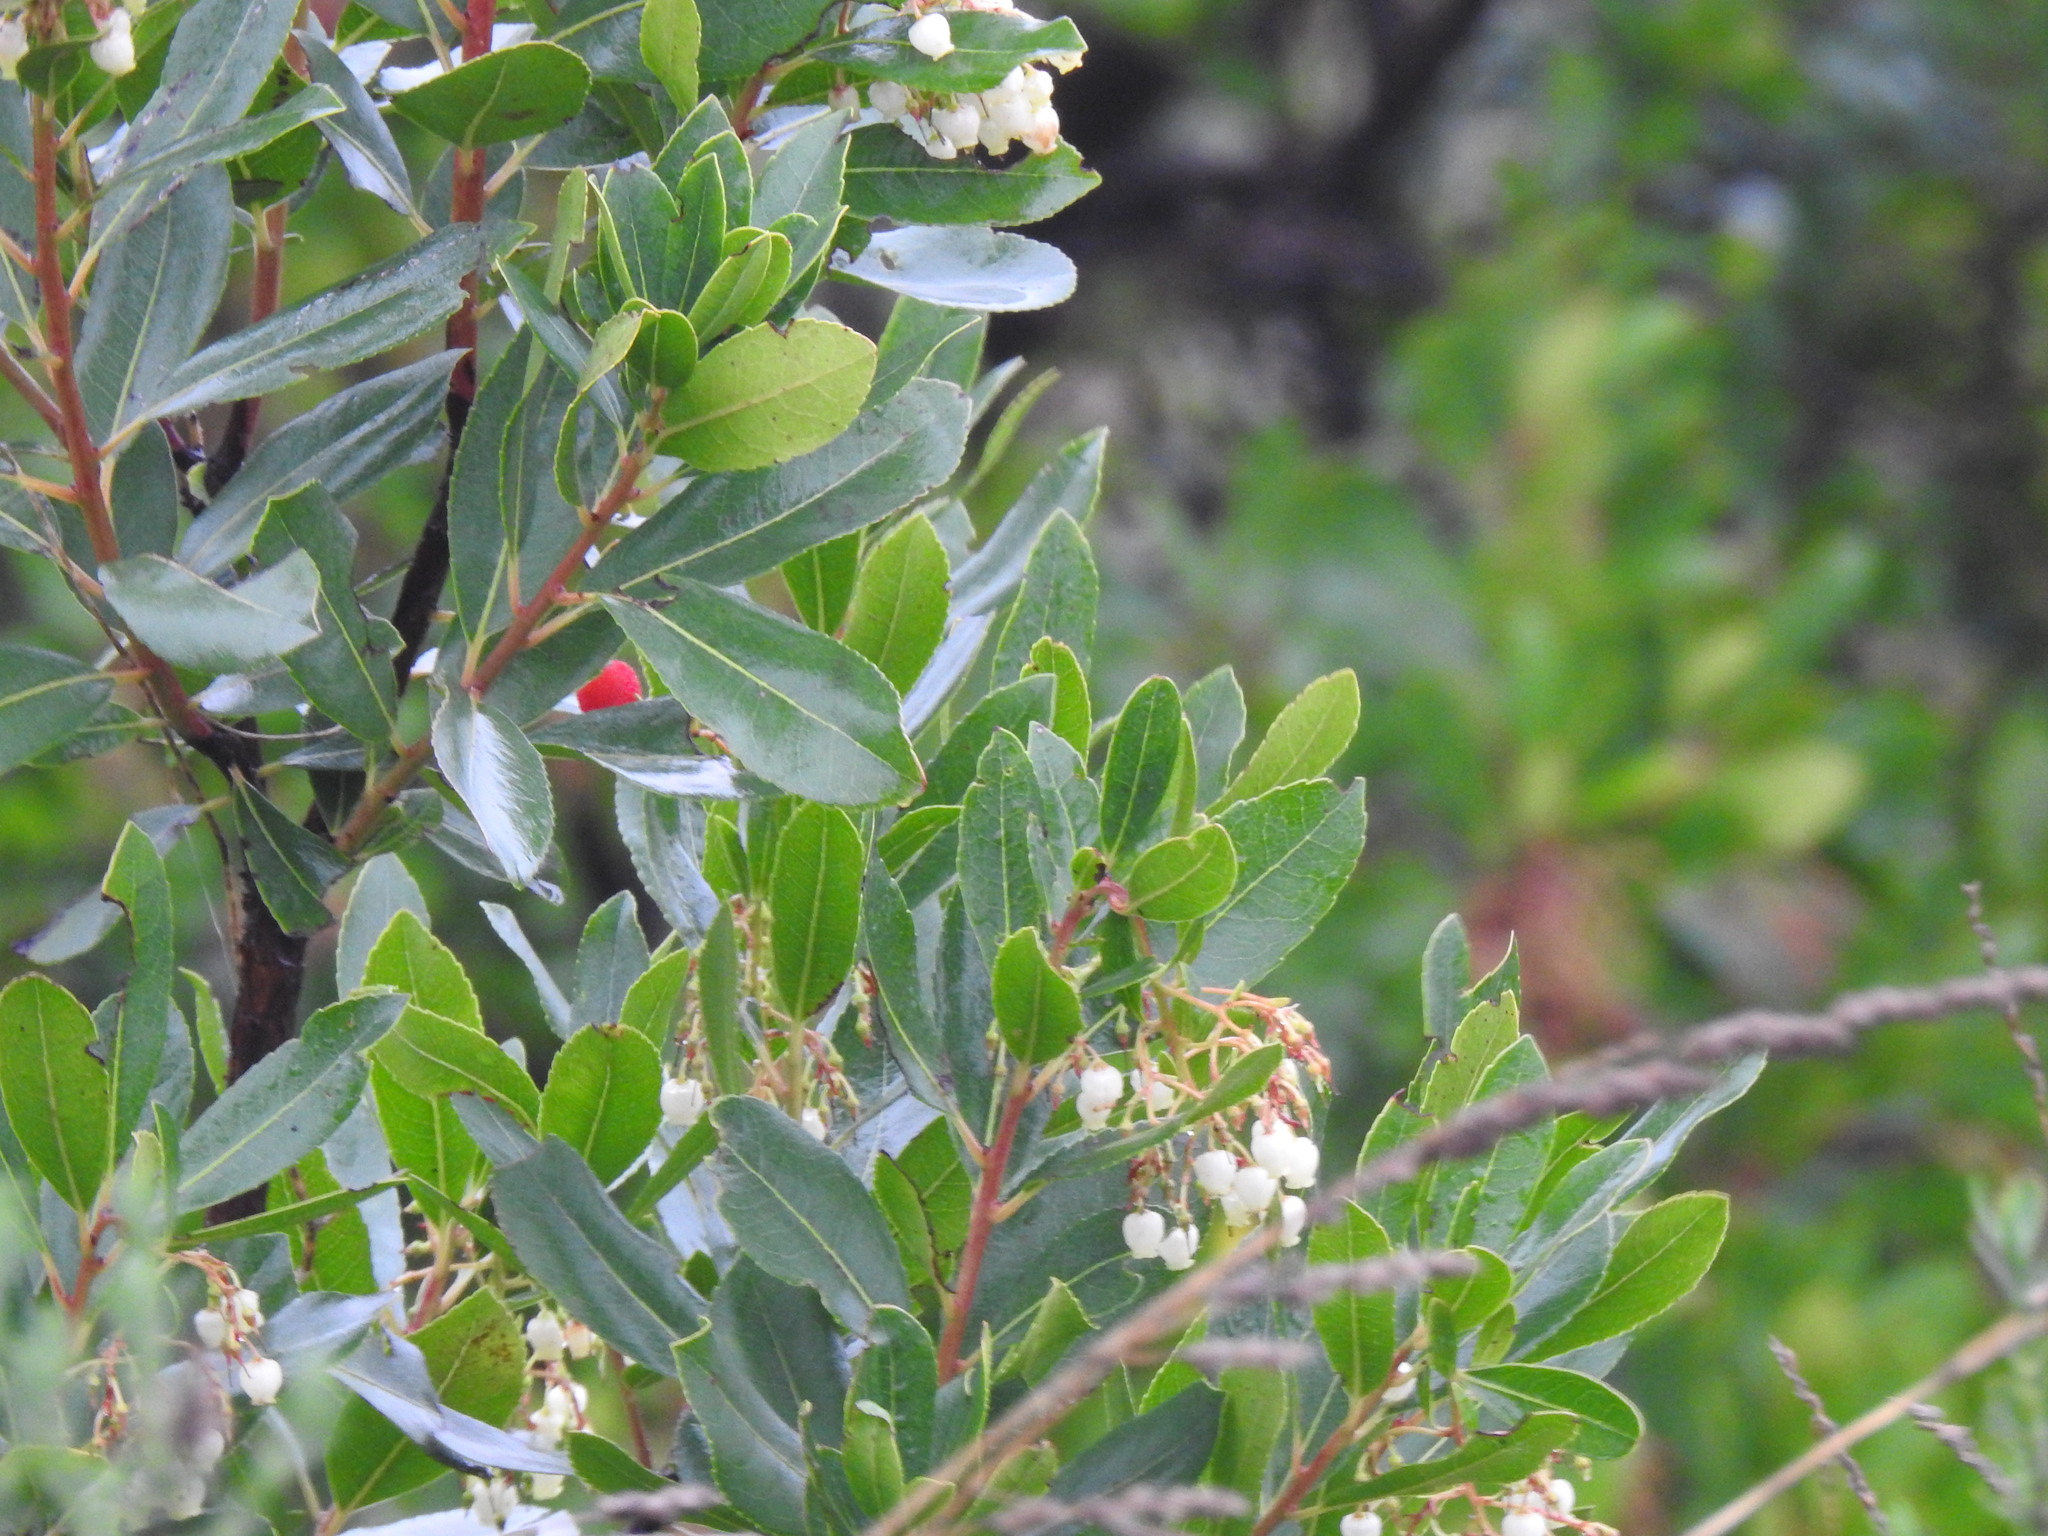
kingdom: Plantae
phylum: Tracheophyta
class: Magnoliopsida
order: Ericales
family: Ericaceae
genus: Arbutus
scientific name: Arbutus unedo
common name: Strawberry-tree
